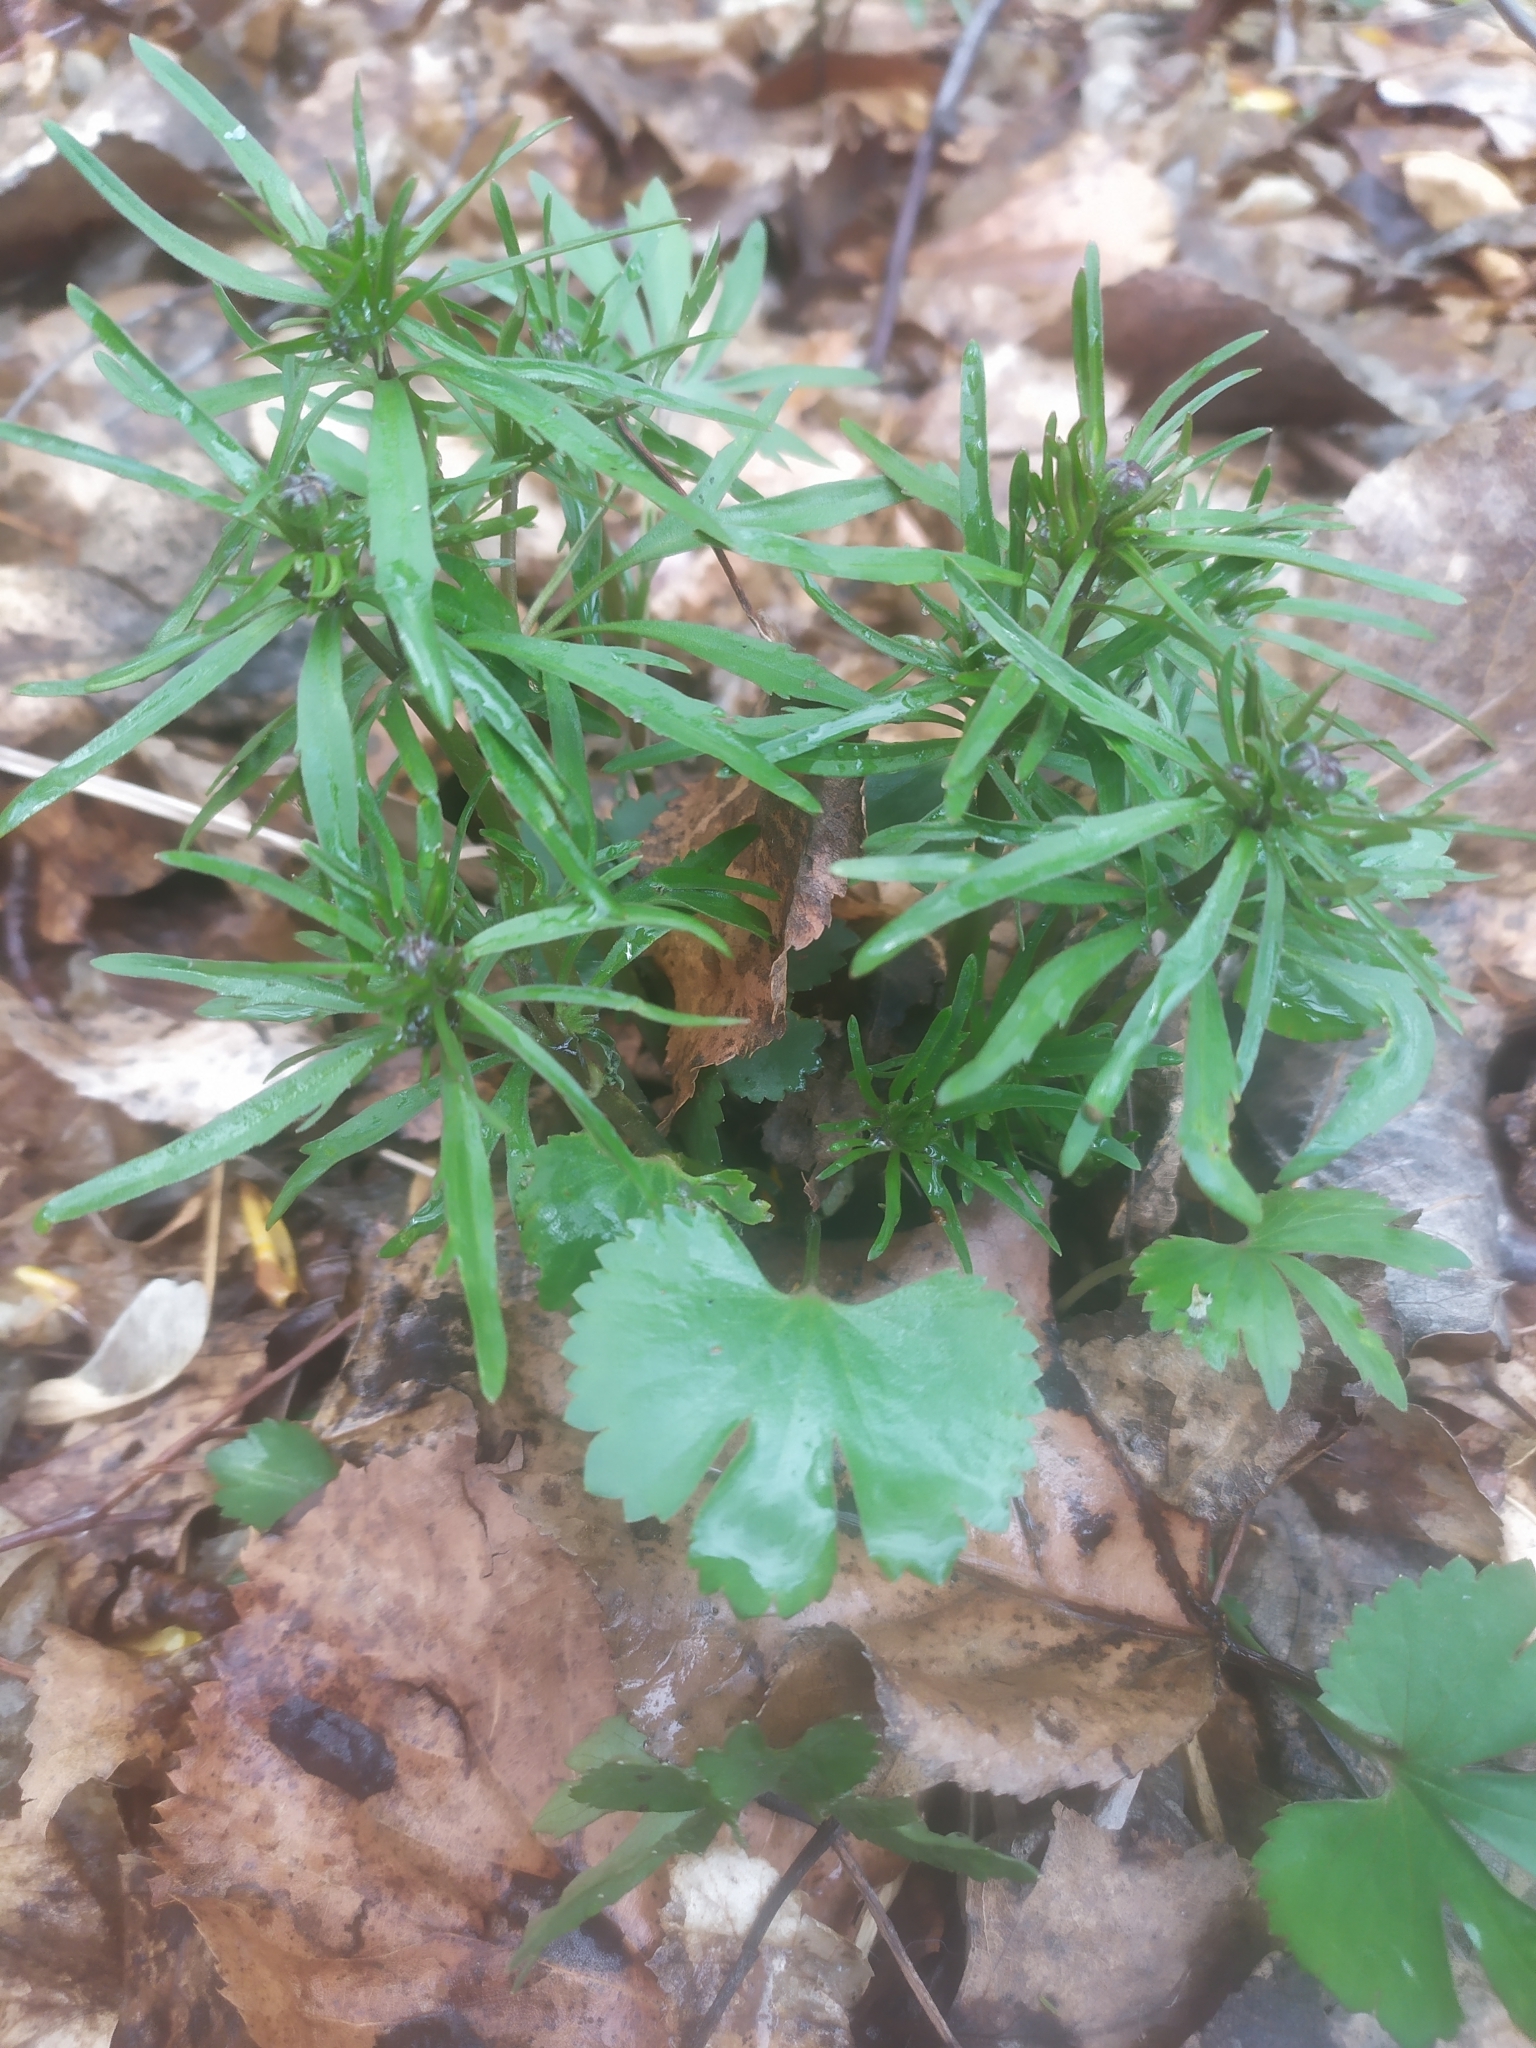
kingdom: Plantae
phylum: Tracheophyta
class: Magnoliopsida
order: Ranunculales
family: Ranunculaceae
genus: Ranunculus
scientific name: Ranunculus auricomus
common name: Goldilocks buttercup
